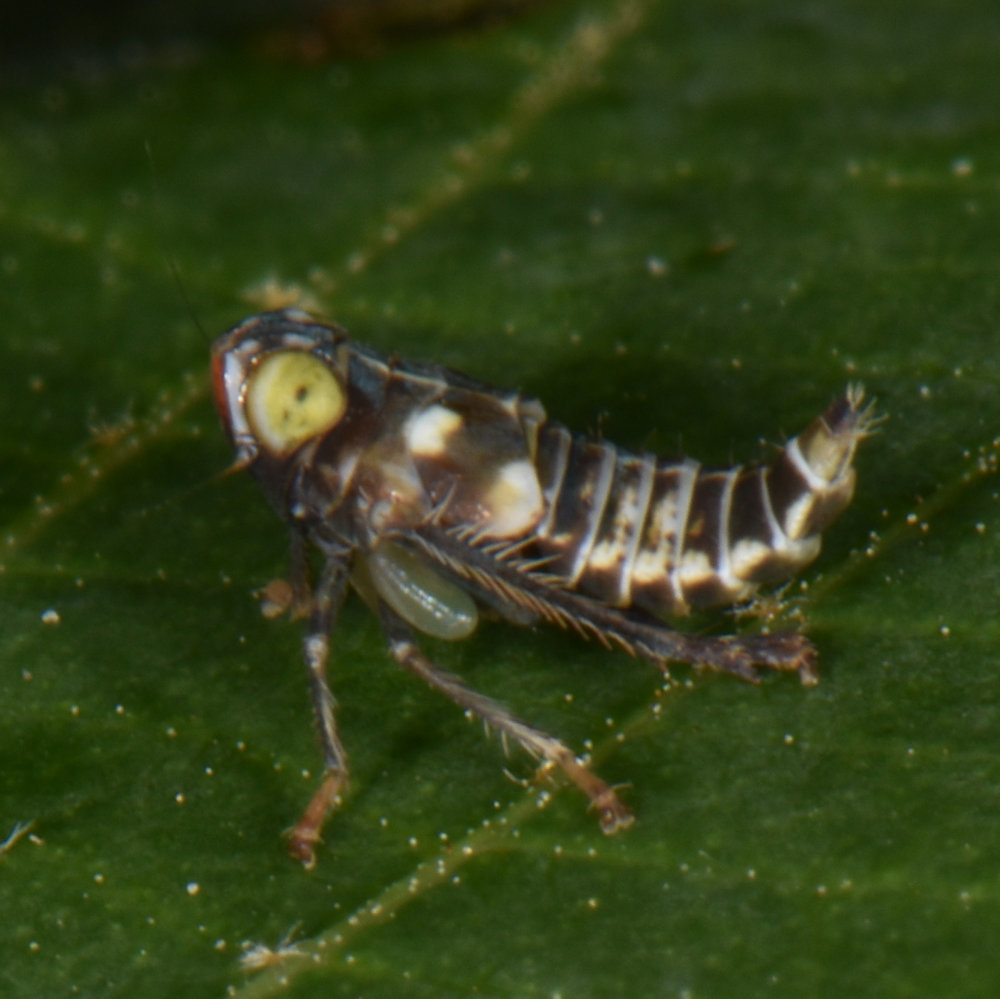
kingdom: Animalia
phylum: Arthropoda
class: Insecta
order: Hemiptera
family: Cicadellidae
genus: Jikradia
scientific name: Jikradia olitoria
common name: Coppery leafhopper
